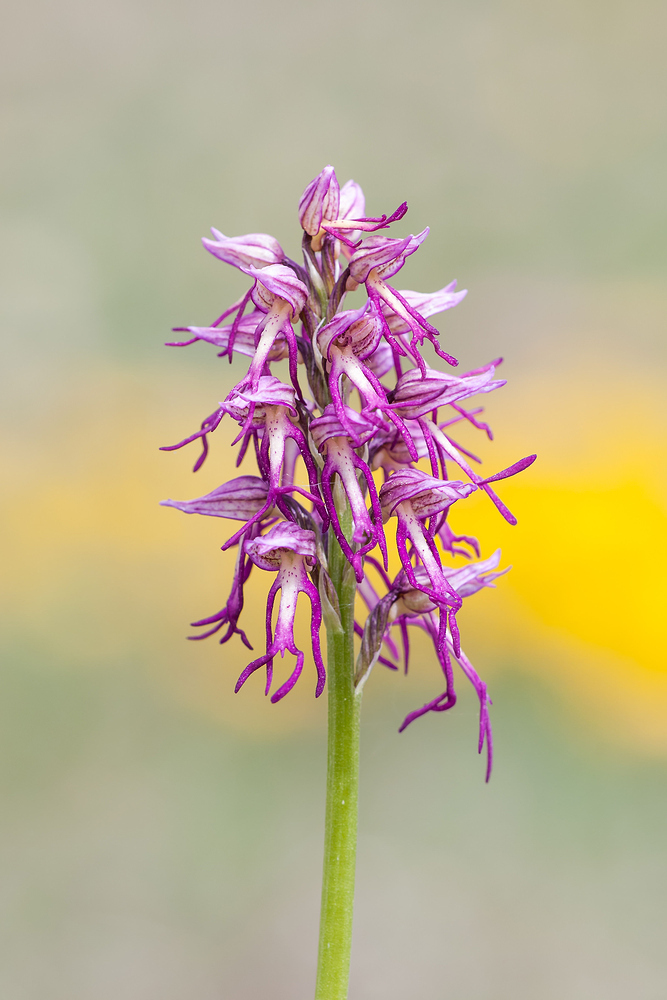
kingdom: Plantae
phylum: Tracheophyta
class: Liliopsida
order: Asparagales
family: Orchidaceae
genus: Orchis
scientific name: Orchis bergonii
